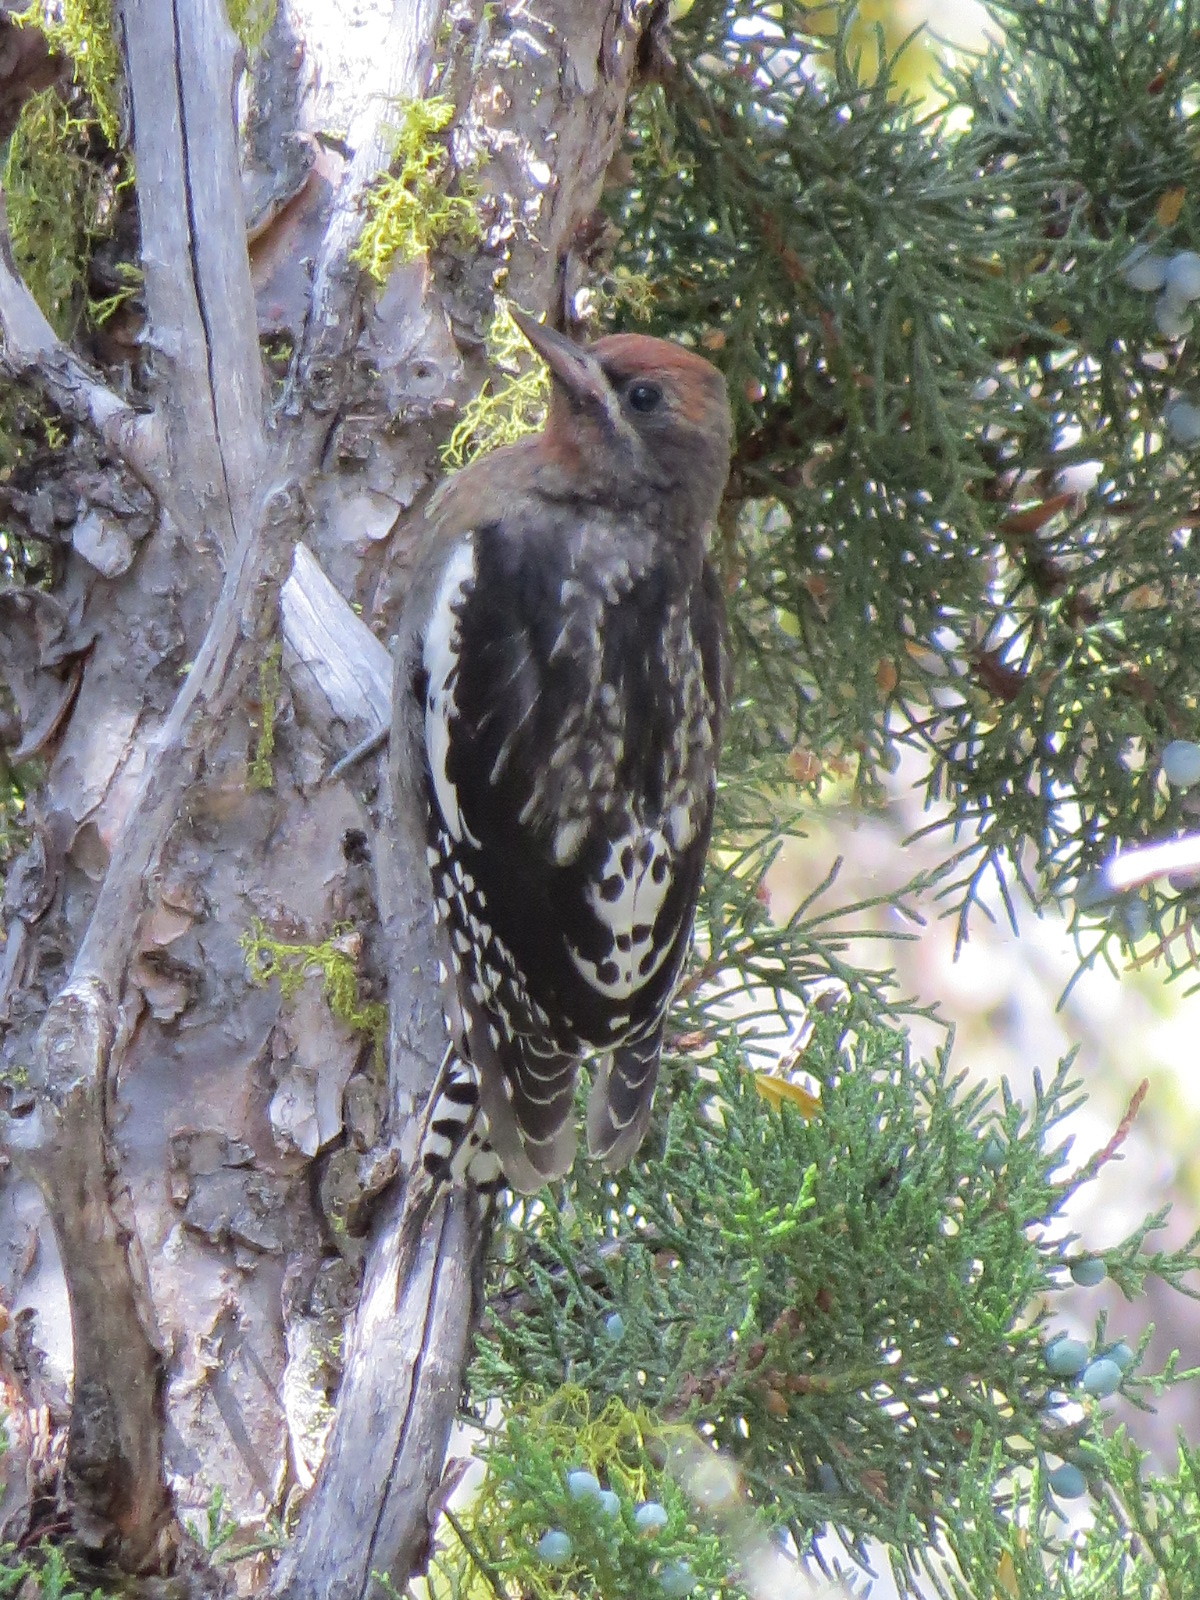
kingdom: Animalia
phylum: Chordata
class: Aves
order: Piciformes
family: Picidae
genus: Sphyrapicus
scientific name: Sphyrapicus ruber
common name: Red-breasted sapsucker
